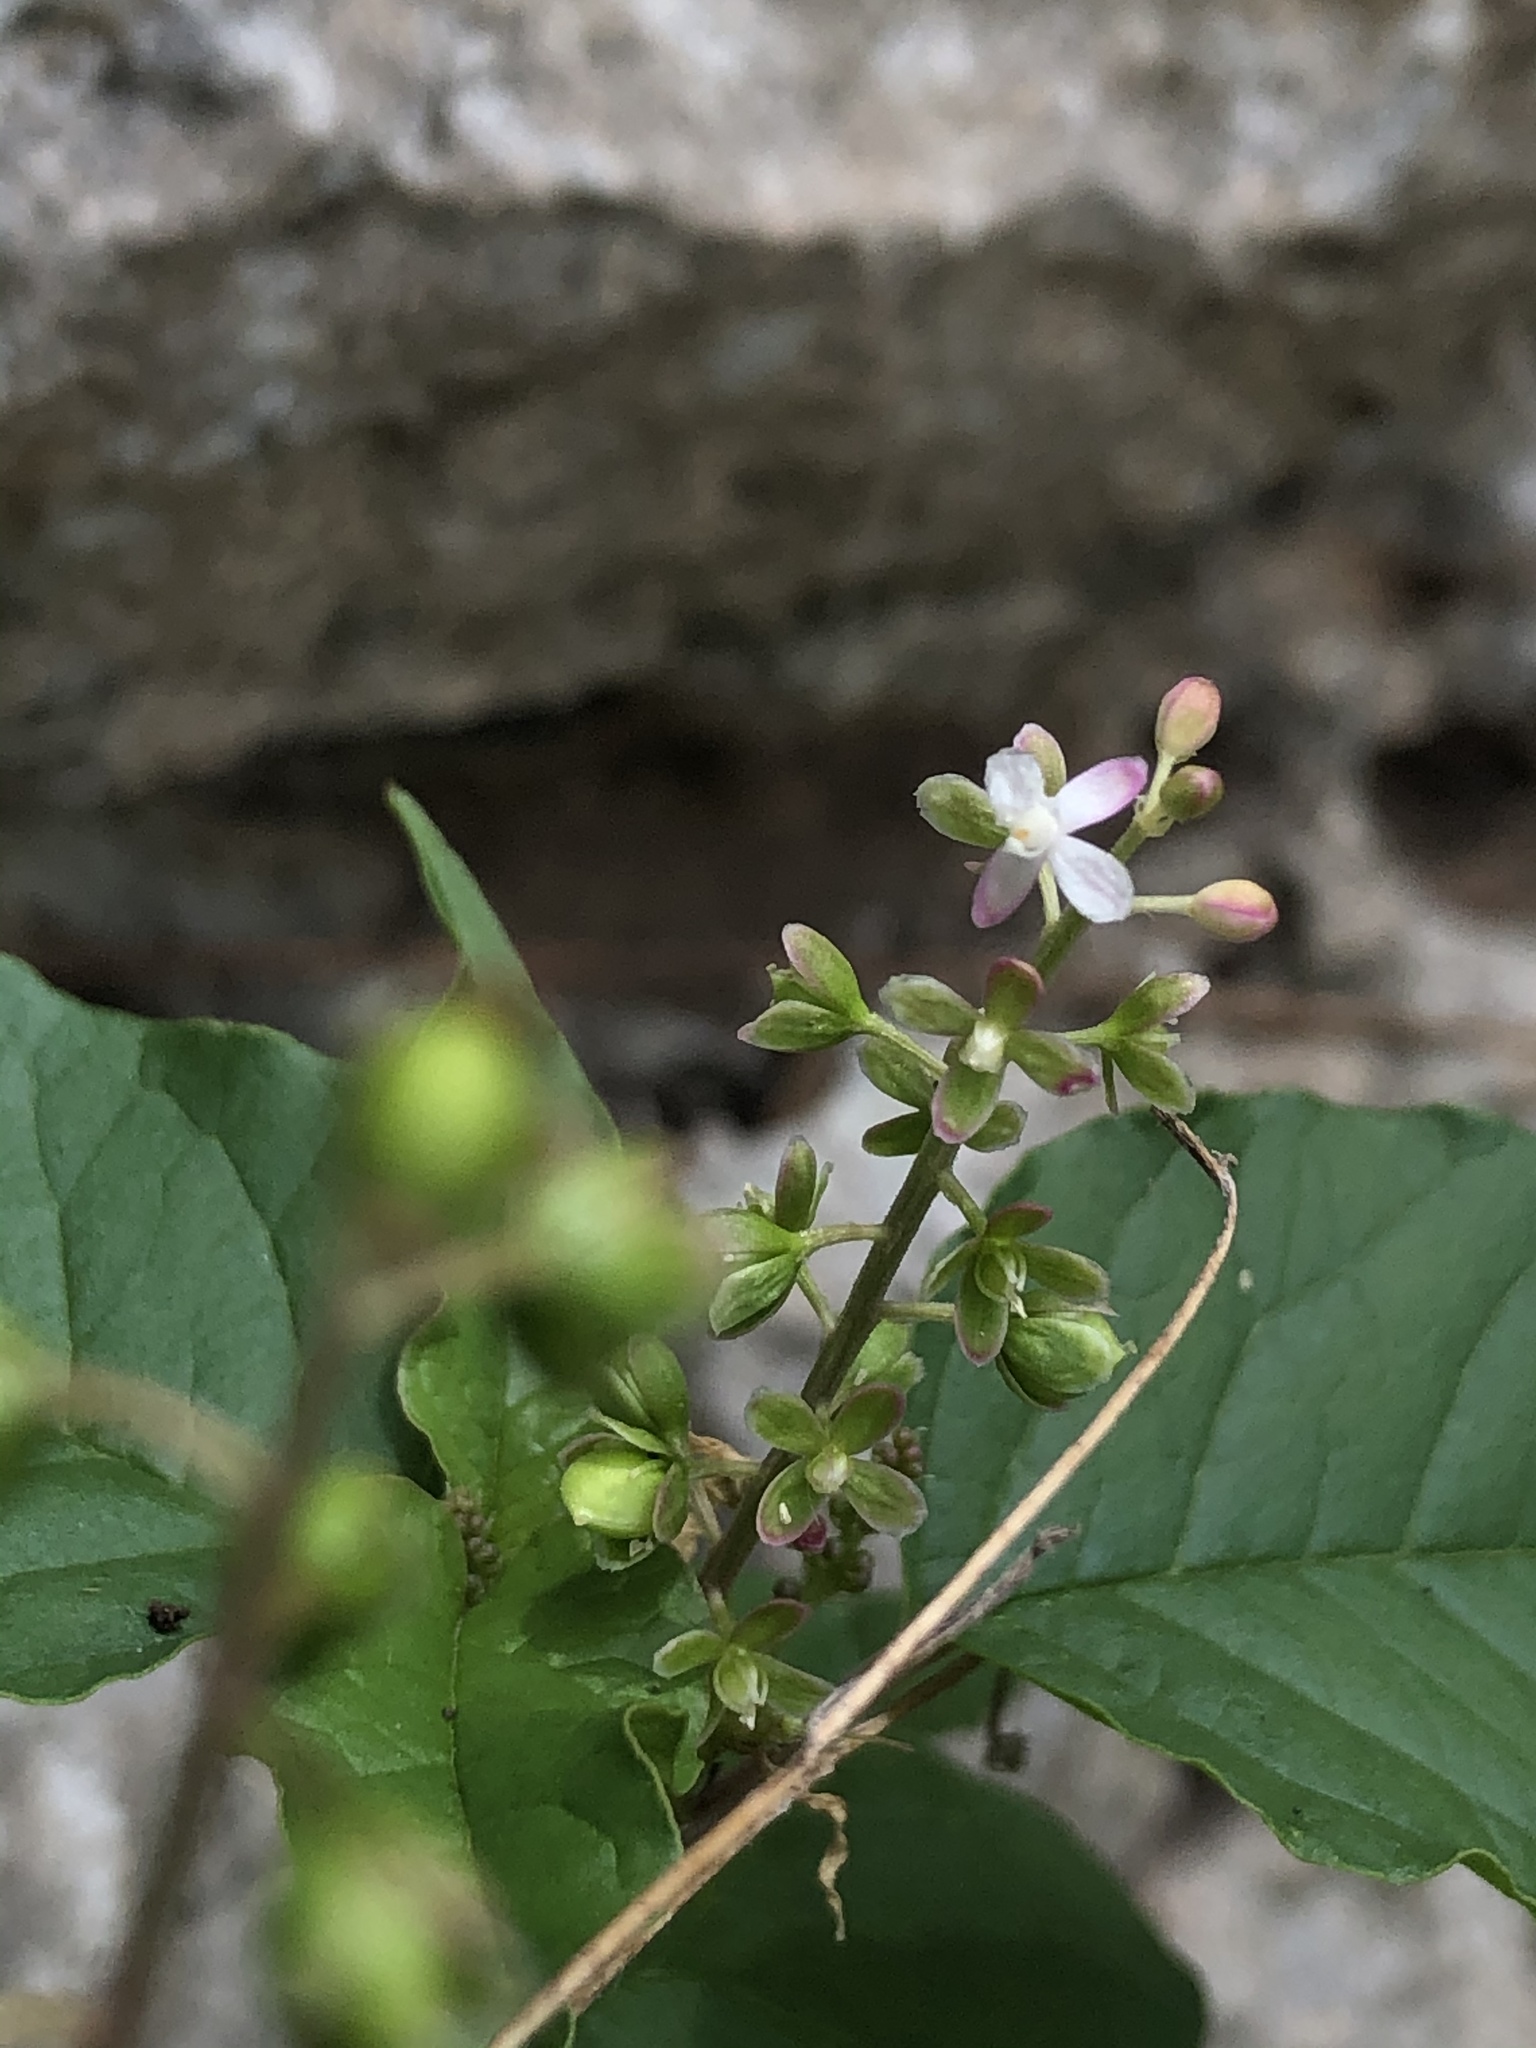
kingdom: Plantae
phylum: Tracheophyta
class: Magnoliopsida
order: Caryophyllales
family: Phytolaccaceae
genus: Rivina
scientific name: Rivina humilis
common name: Rougeplant
